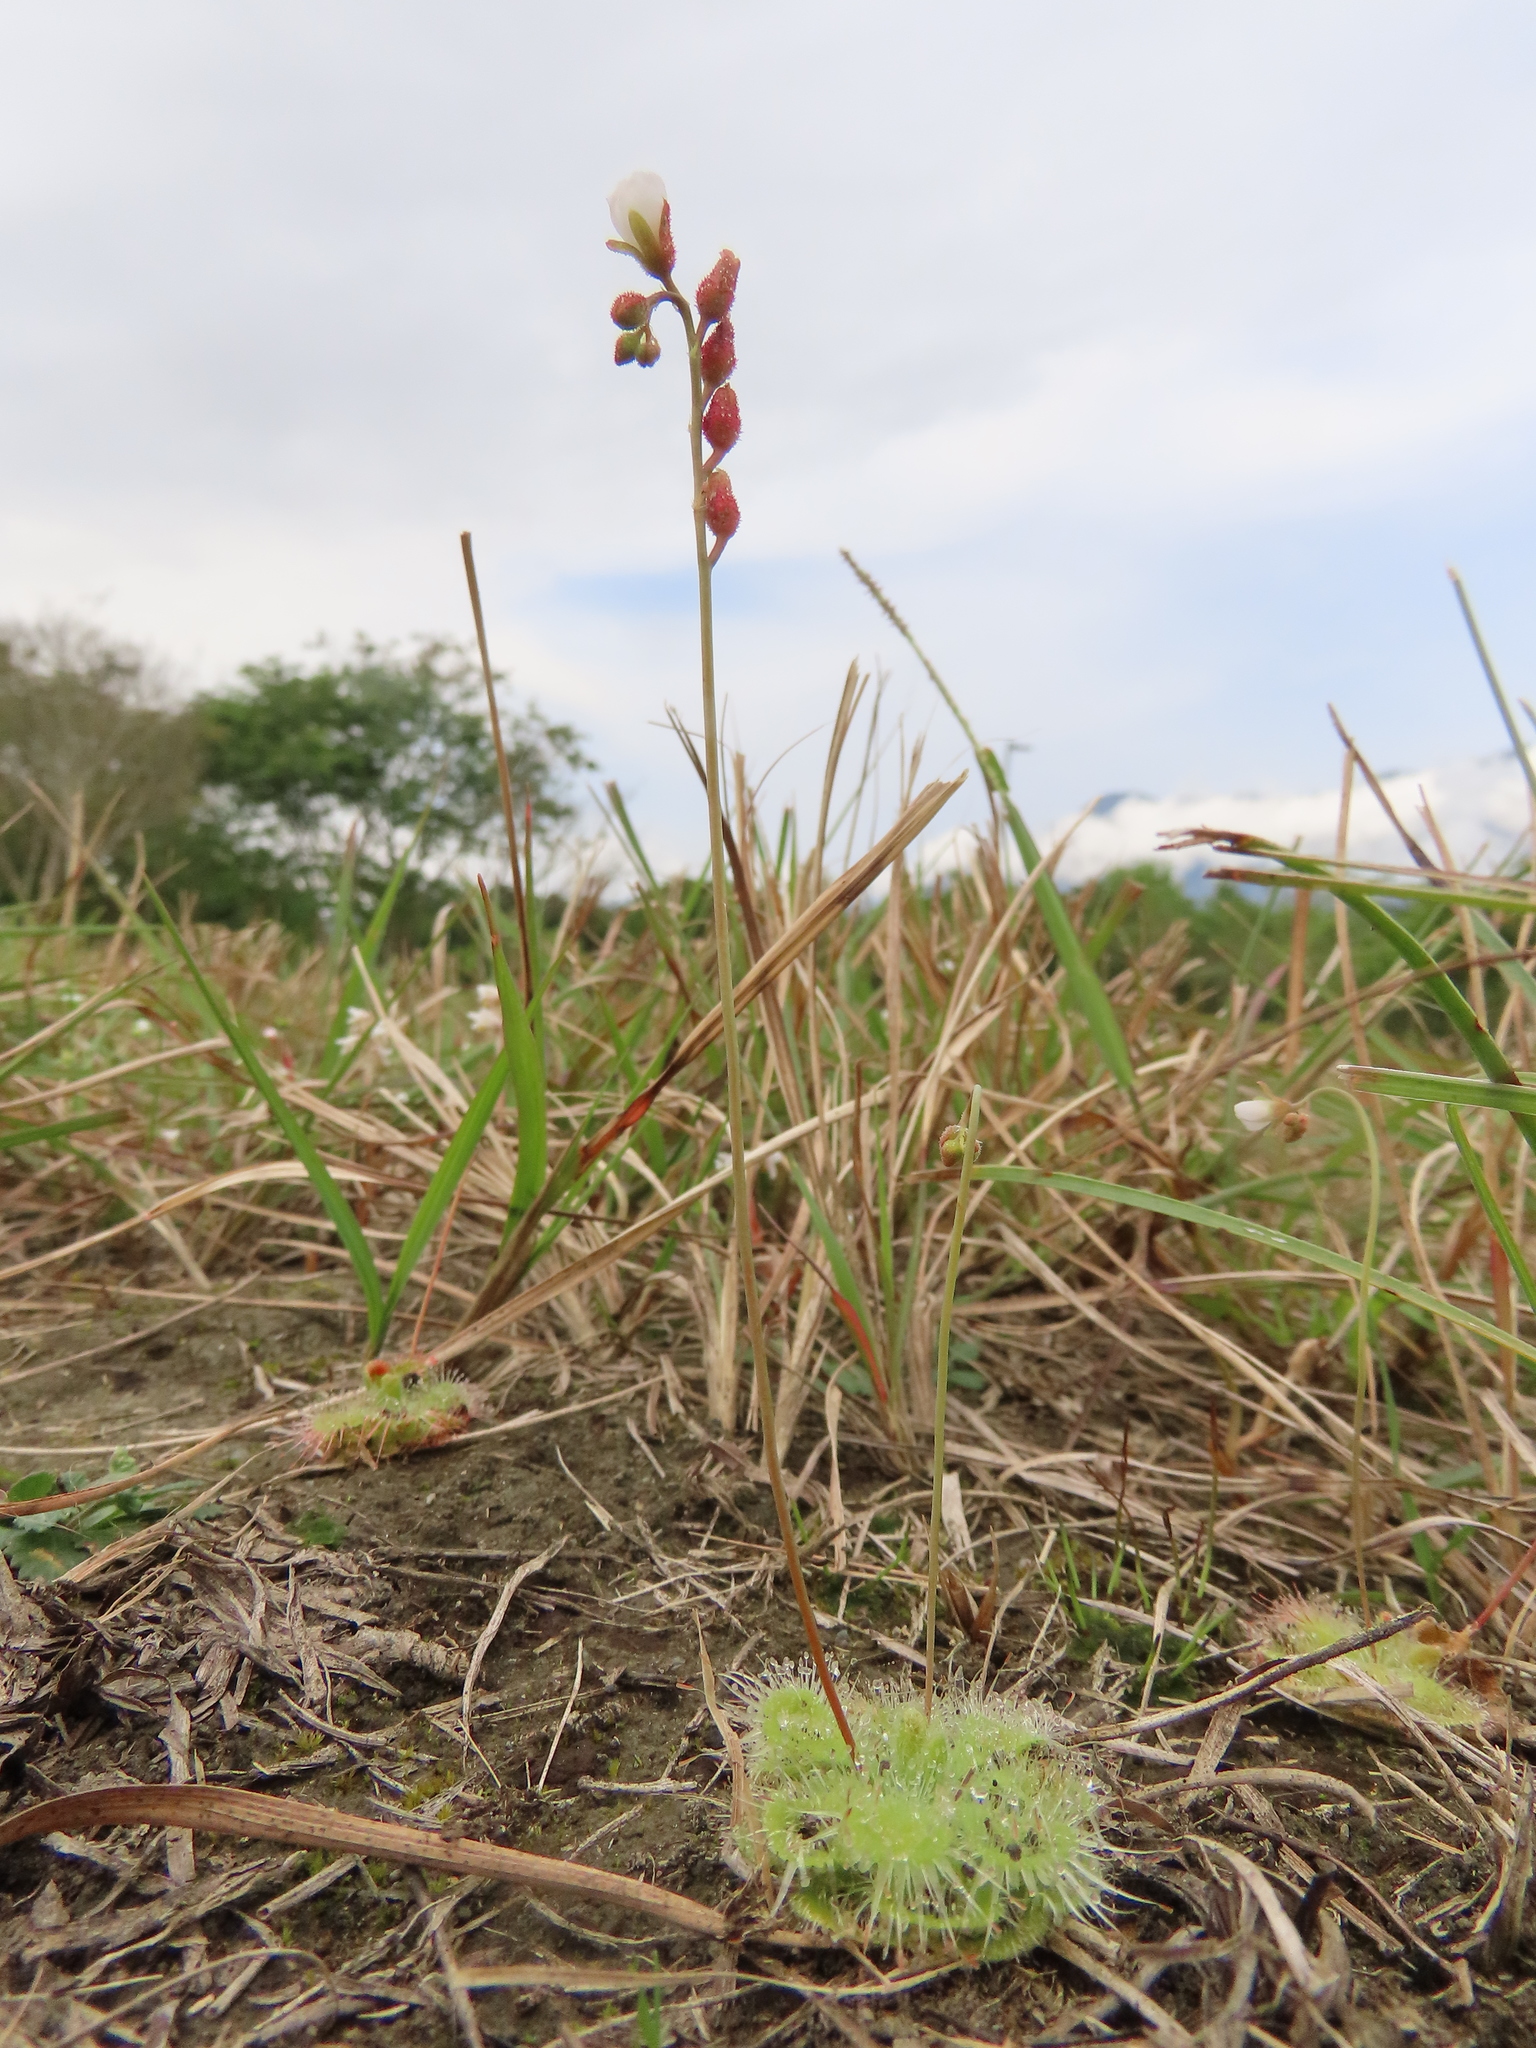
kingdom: Plantae
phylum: Tracheophyta
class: Magnoliopsida
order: Caryophyllales
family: Droseraceae
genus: Drosera
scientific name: Drosera spatulata
